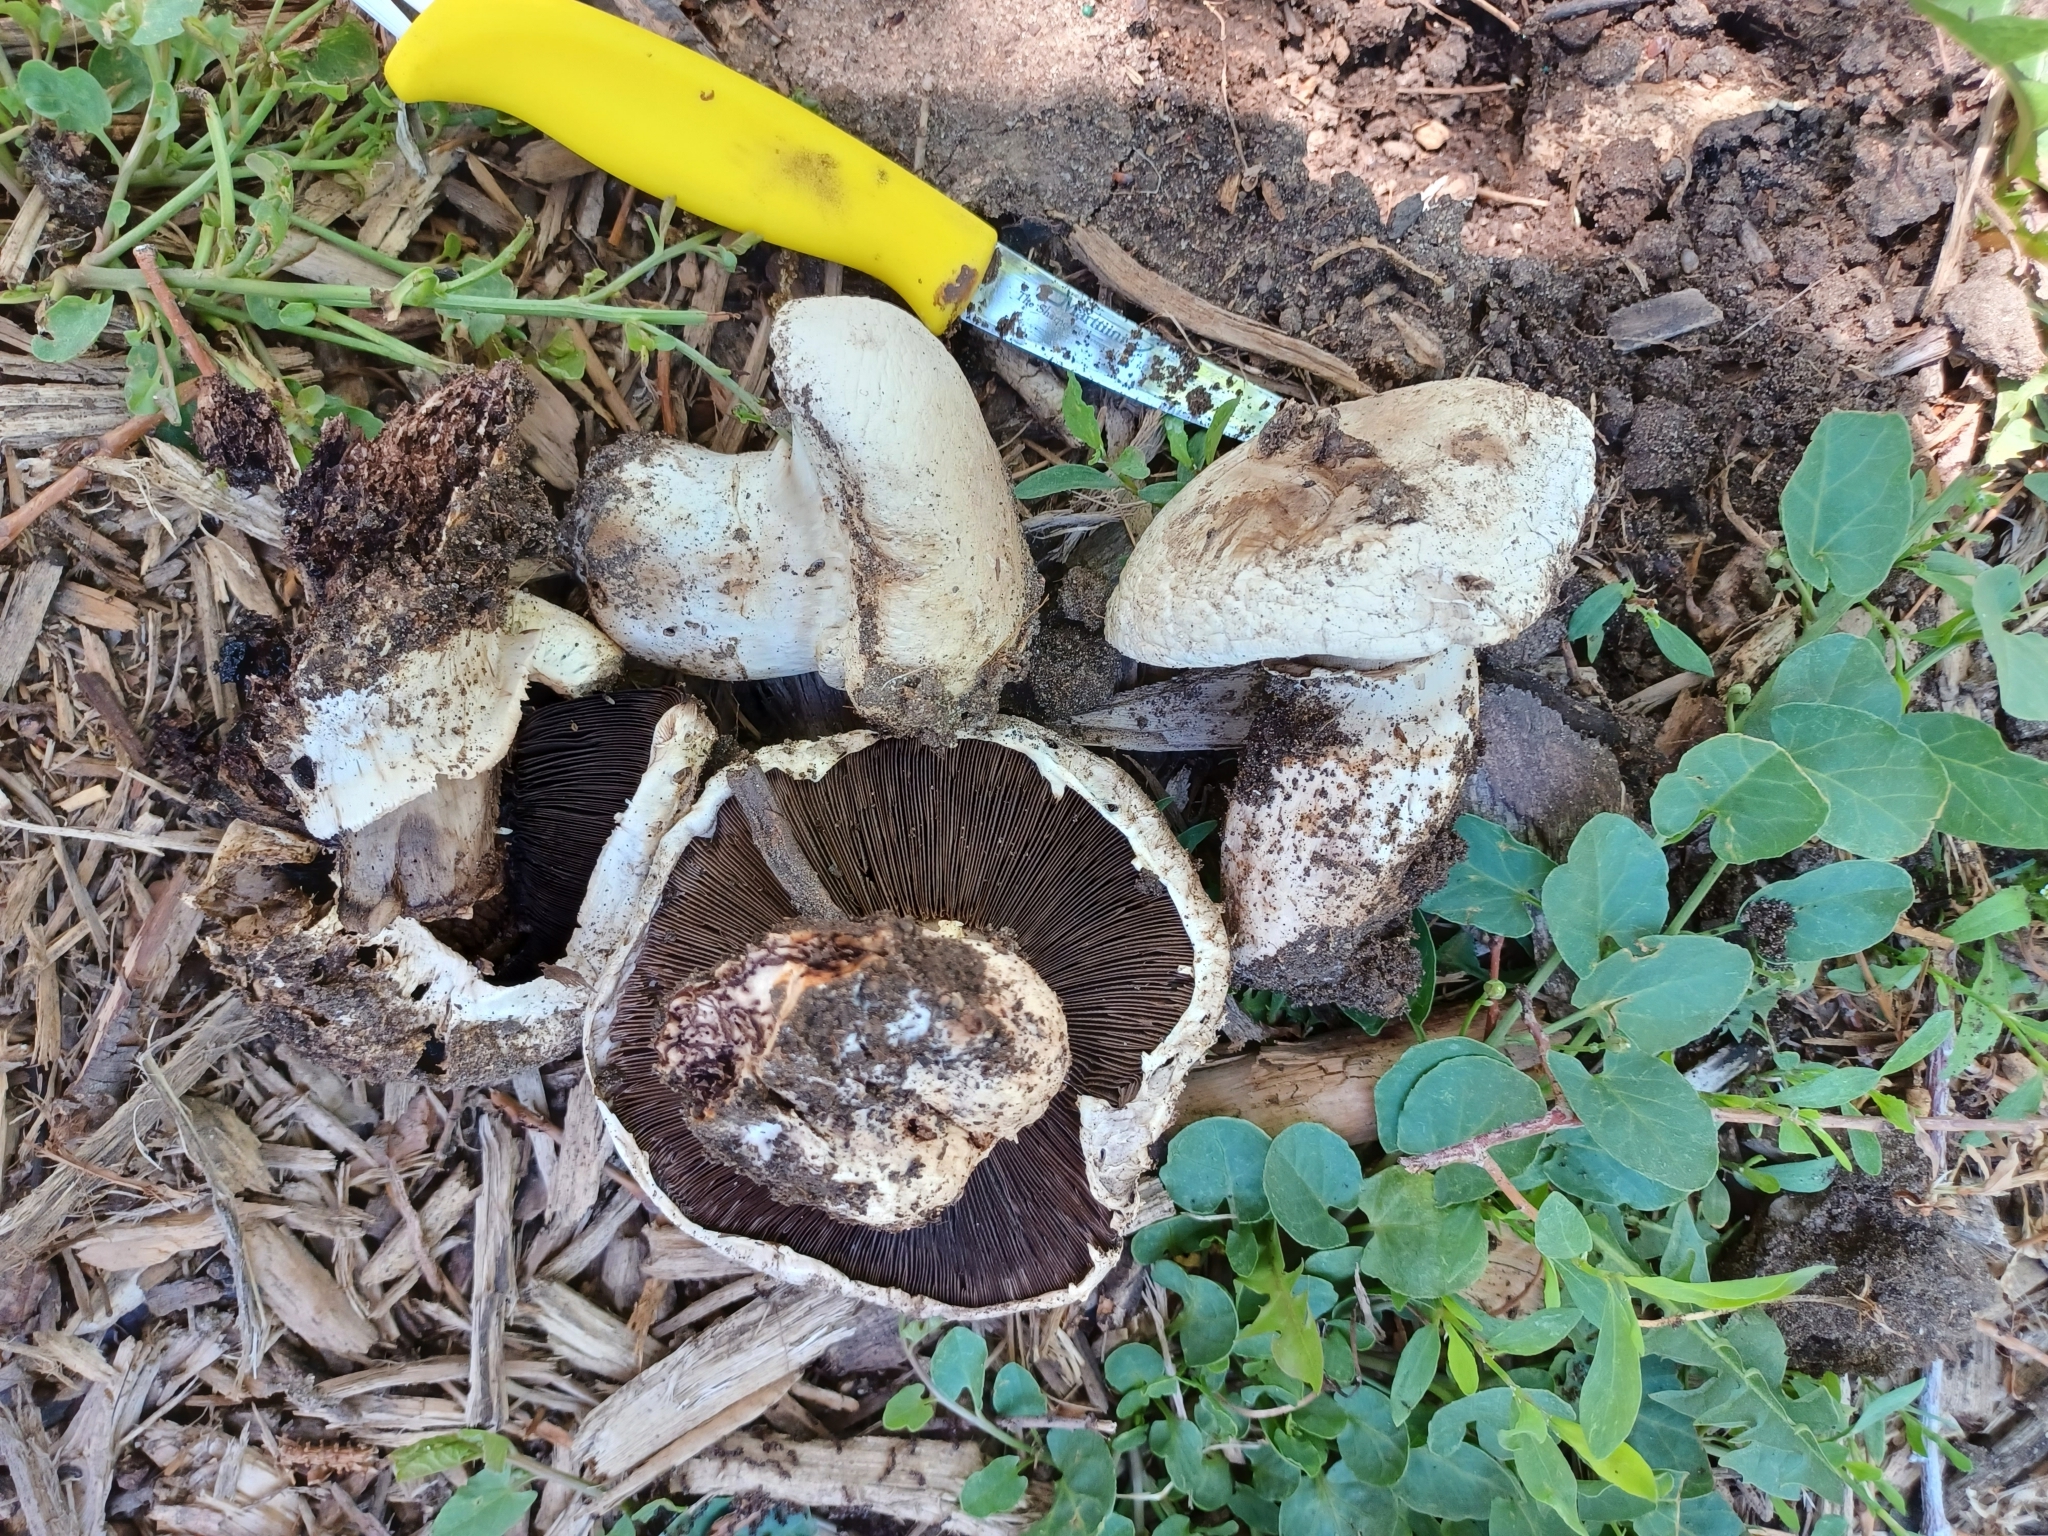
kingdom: Fungi
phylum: Basidiomycota
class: Agaricomycetes
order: Agaricales
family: Agaricaceae
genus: Agaricus
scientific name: Agaricus bernardii
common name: Salty mushroom
